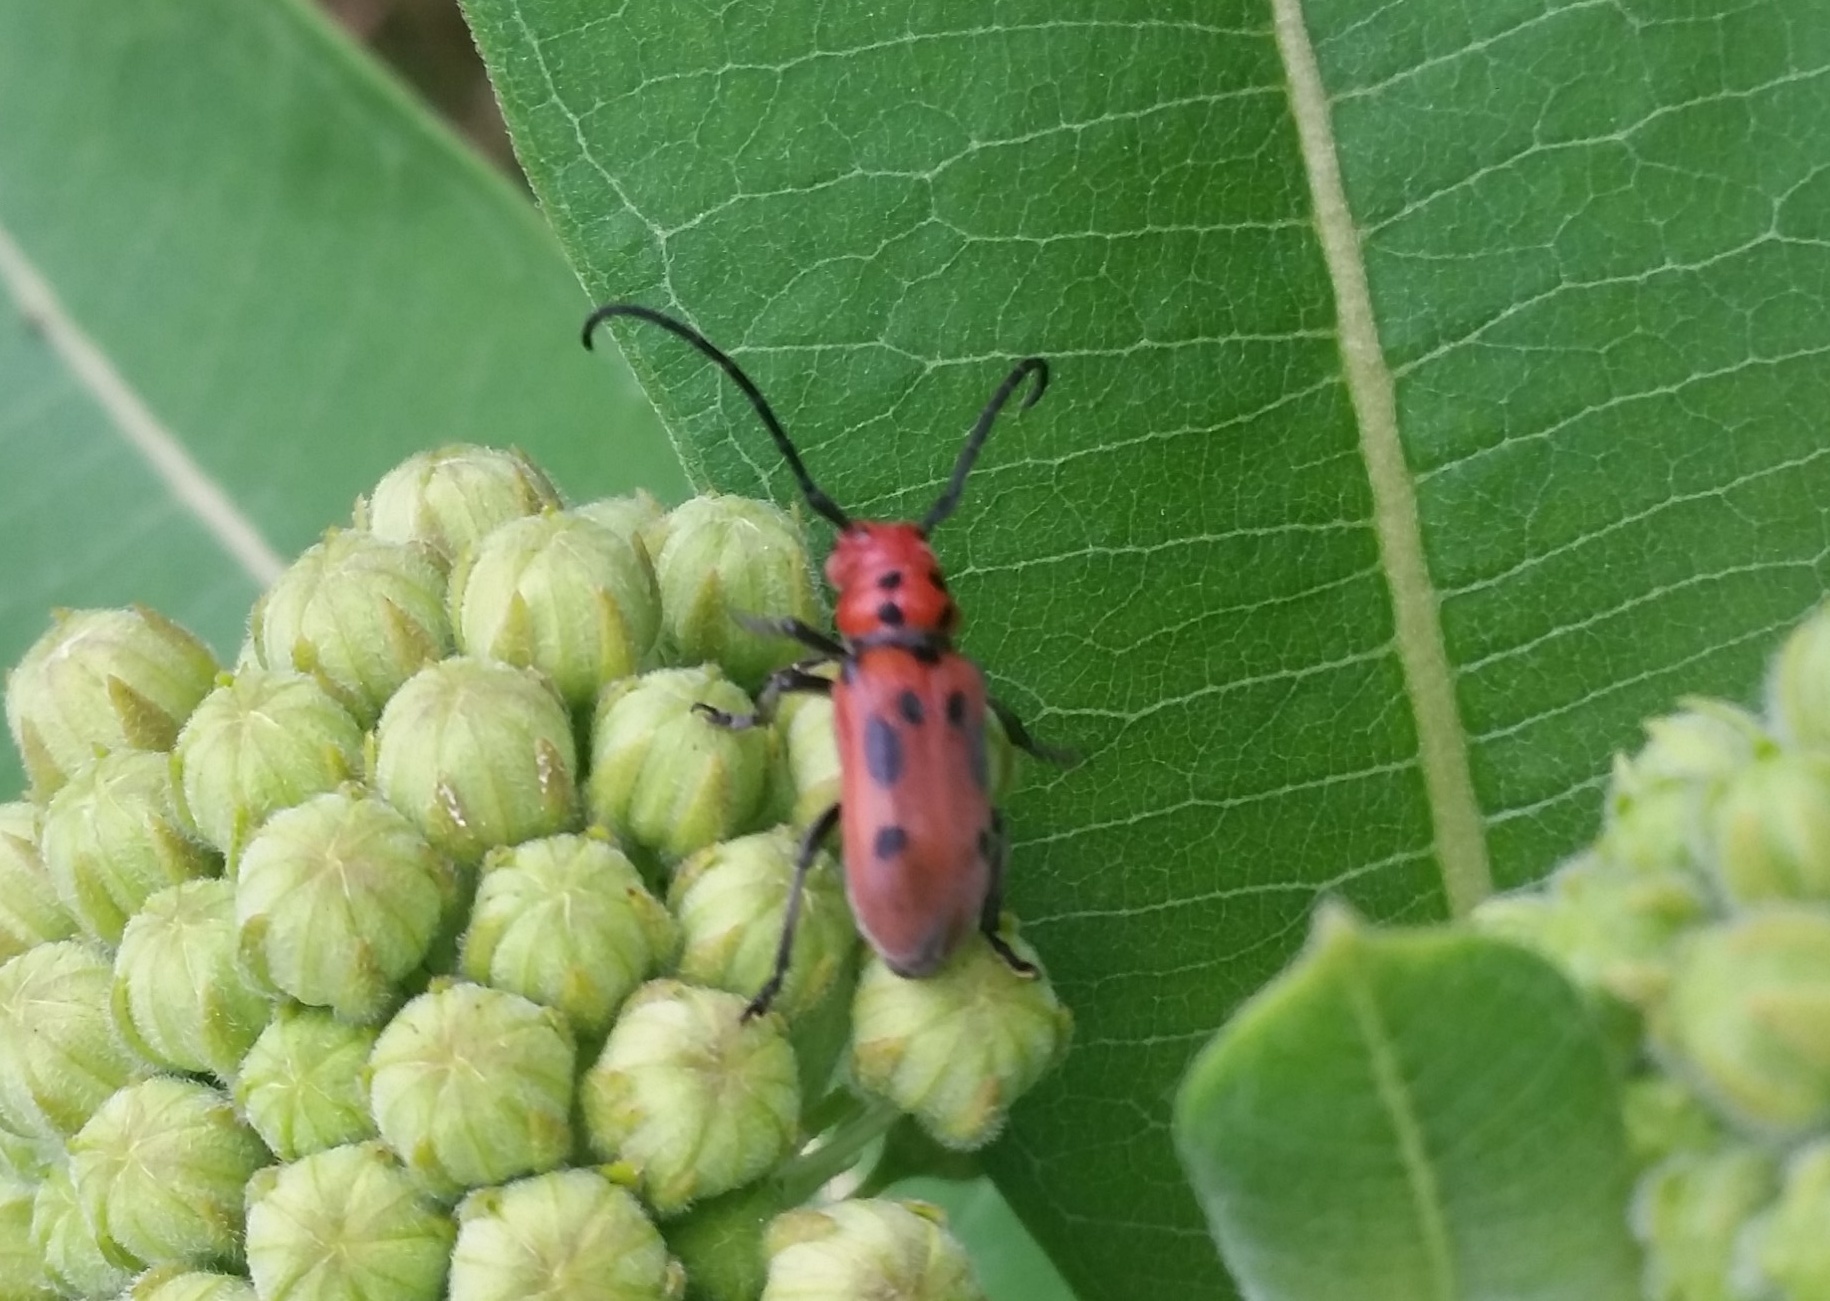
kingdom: Animalia
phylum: Arthropoda
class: Insecta
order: Coleoptera
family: Cerambycidae
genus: Tetraopes
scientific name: Tetraopes tetrophthalmus
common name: Red milkweed beetle
